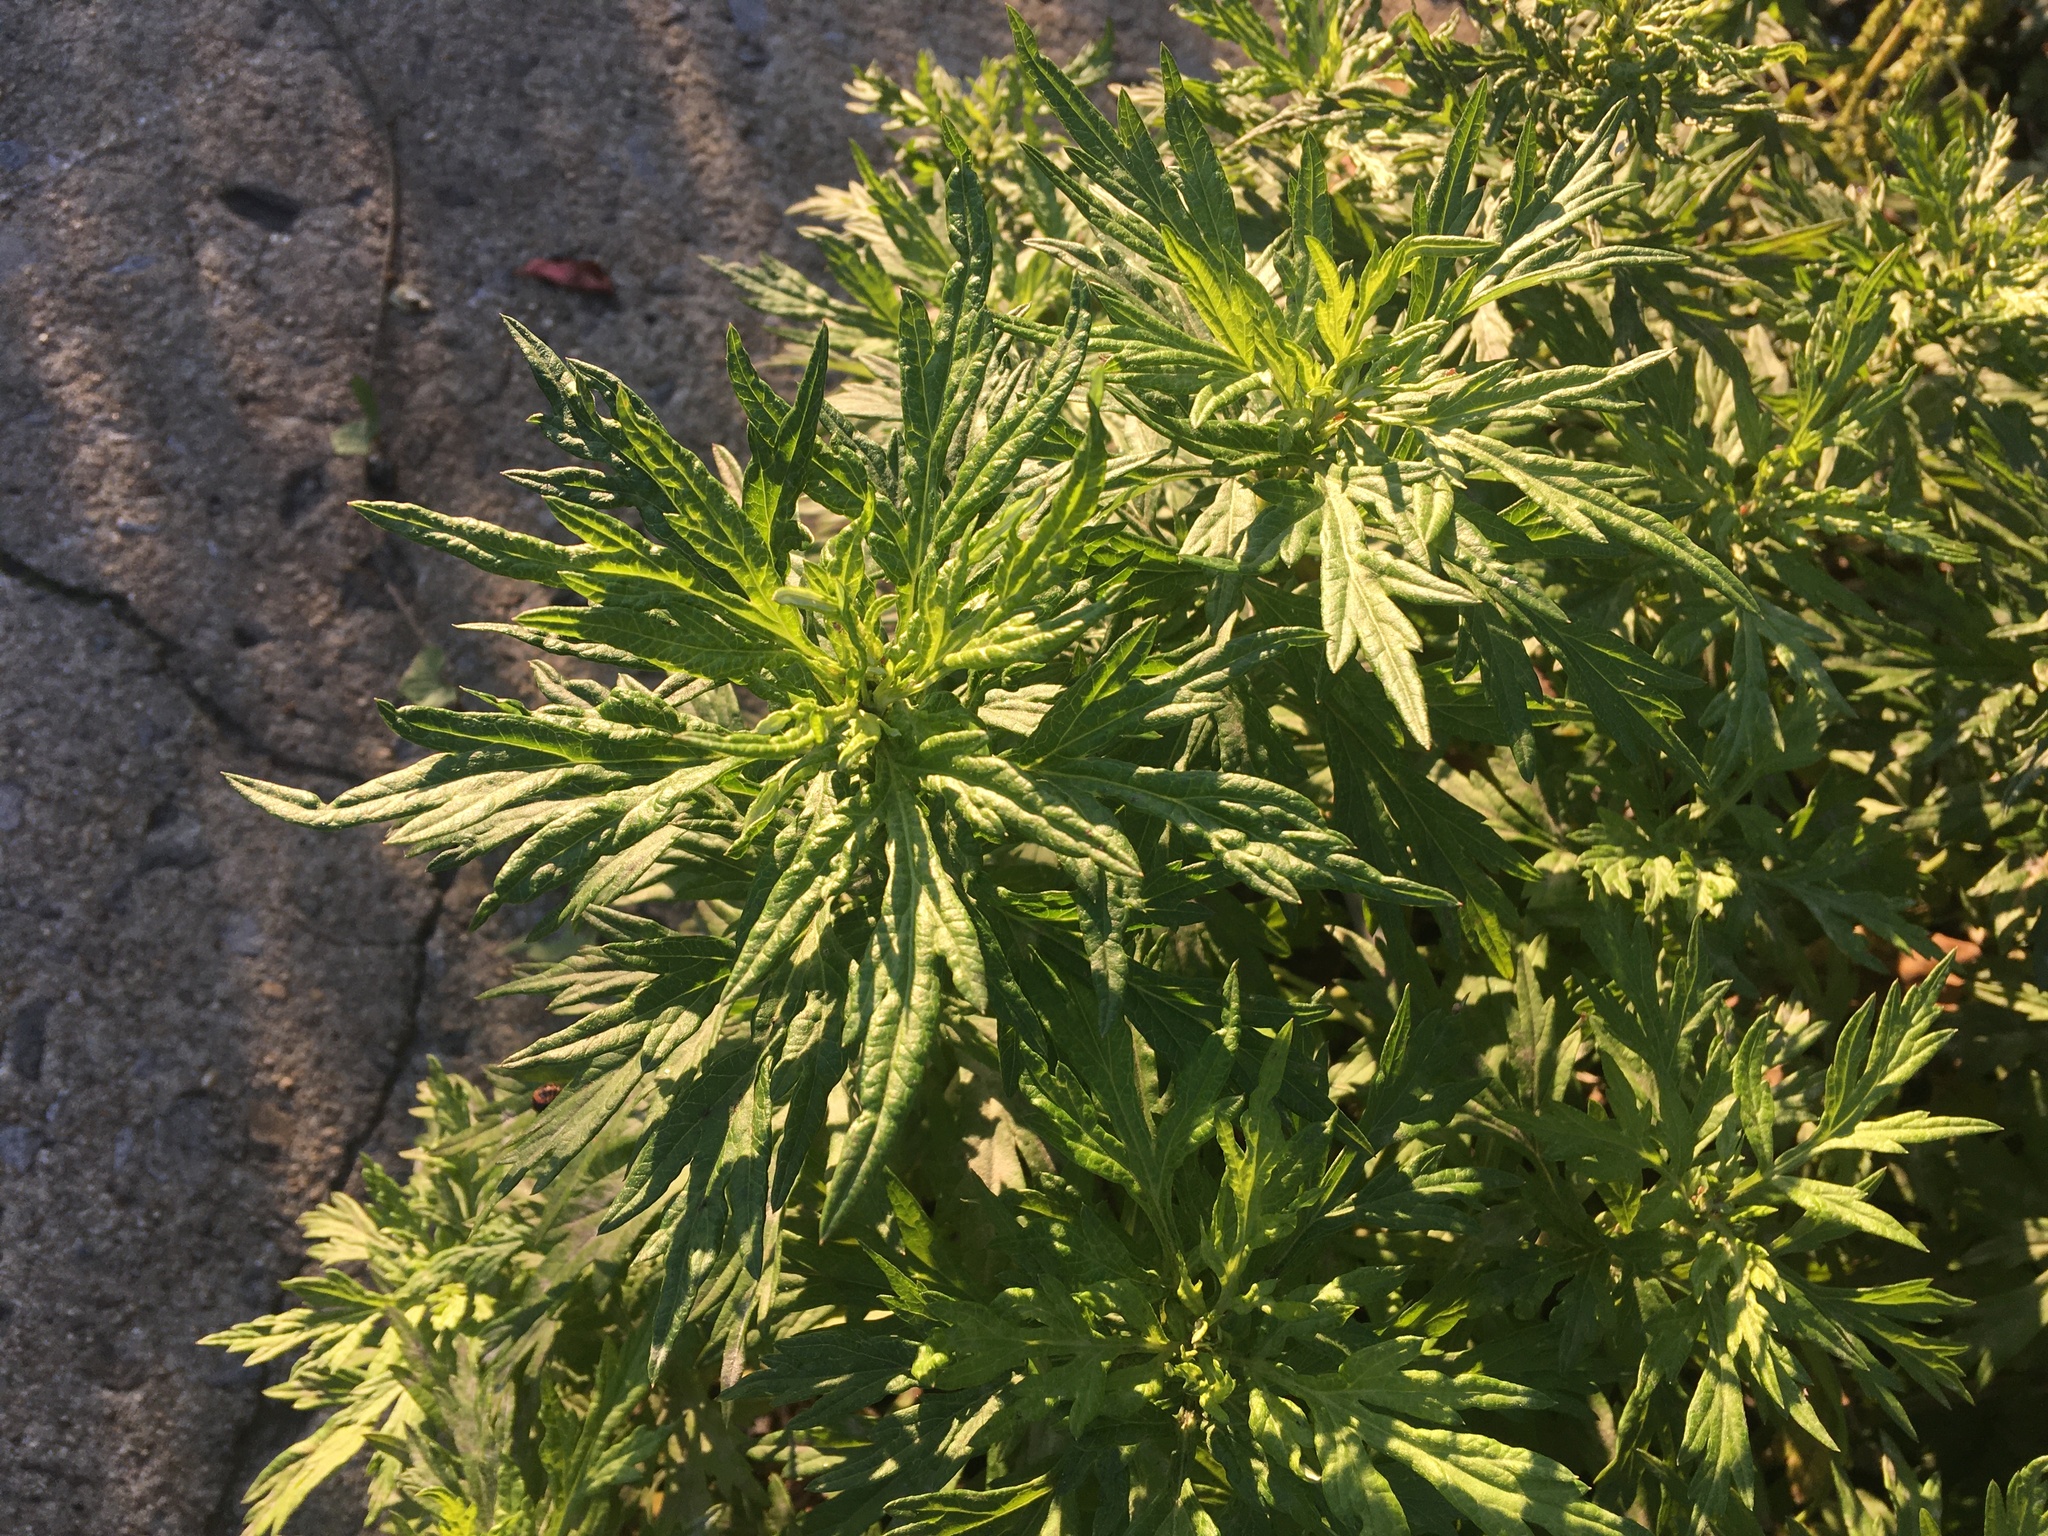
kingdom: Plantae
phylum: Tracheophyta
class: Magnoliopsida
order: Asterales
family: Asteraceae
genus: Artemisia
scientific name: Artemisia vulgaris
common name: Mugwort
